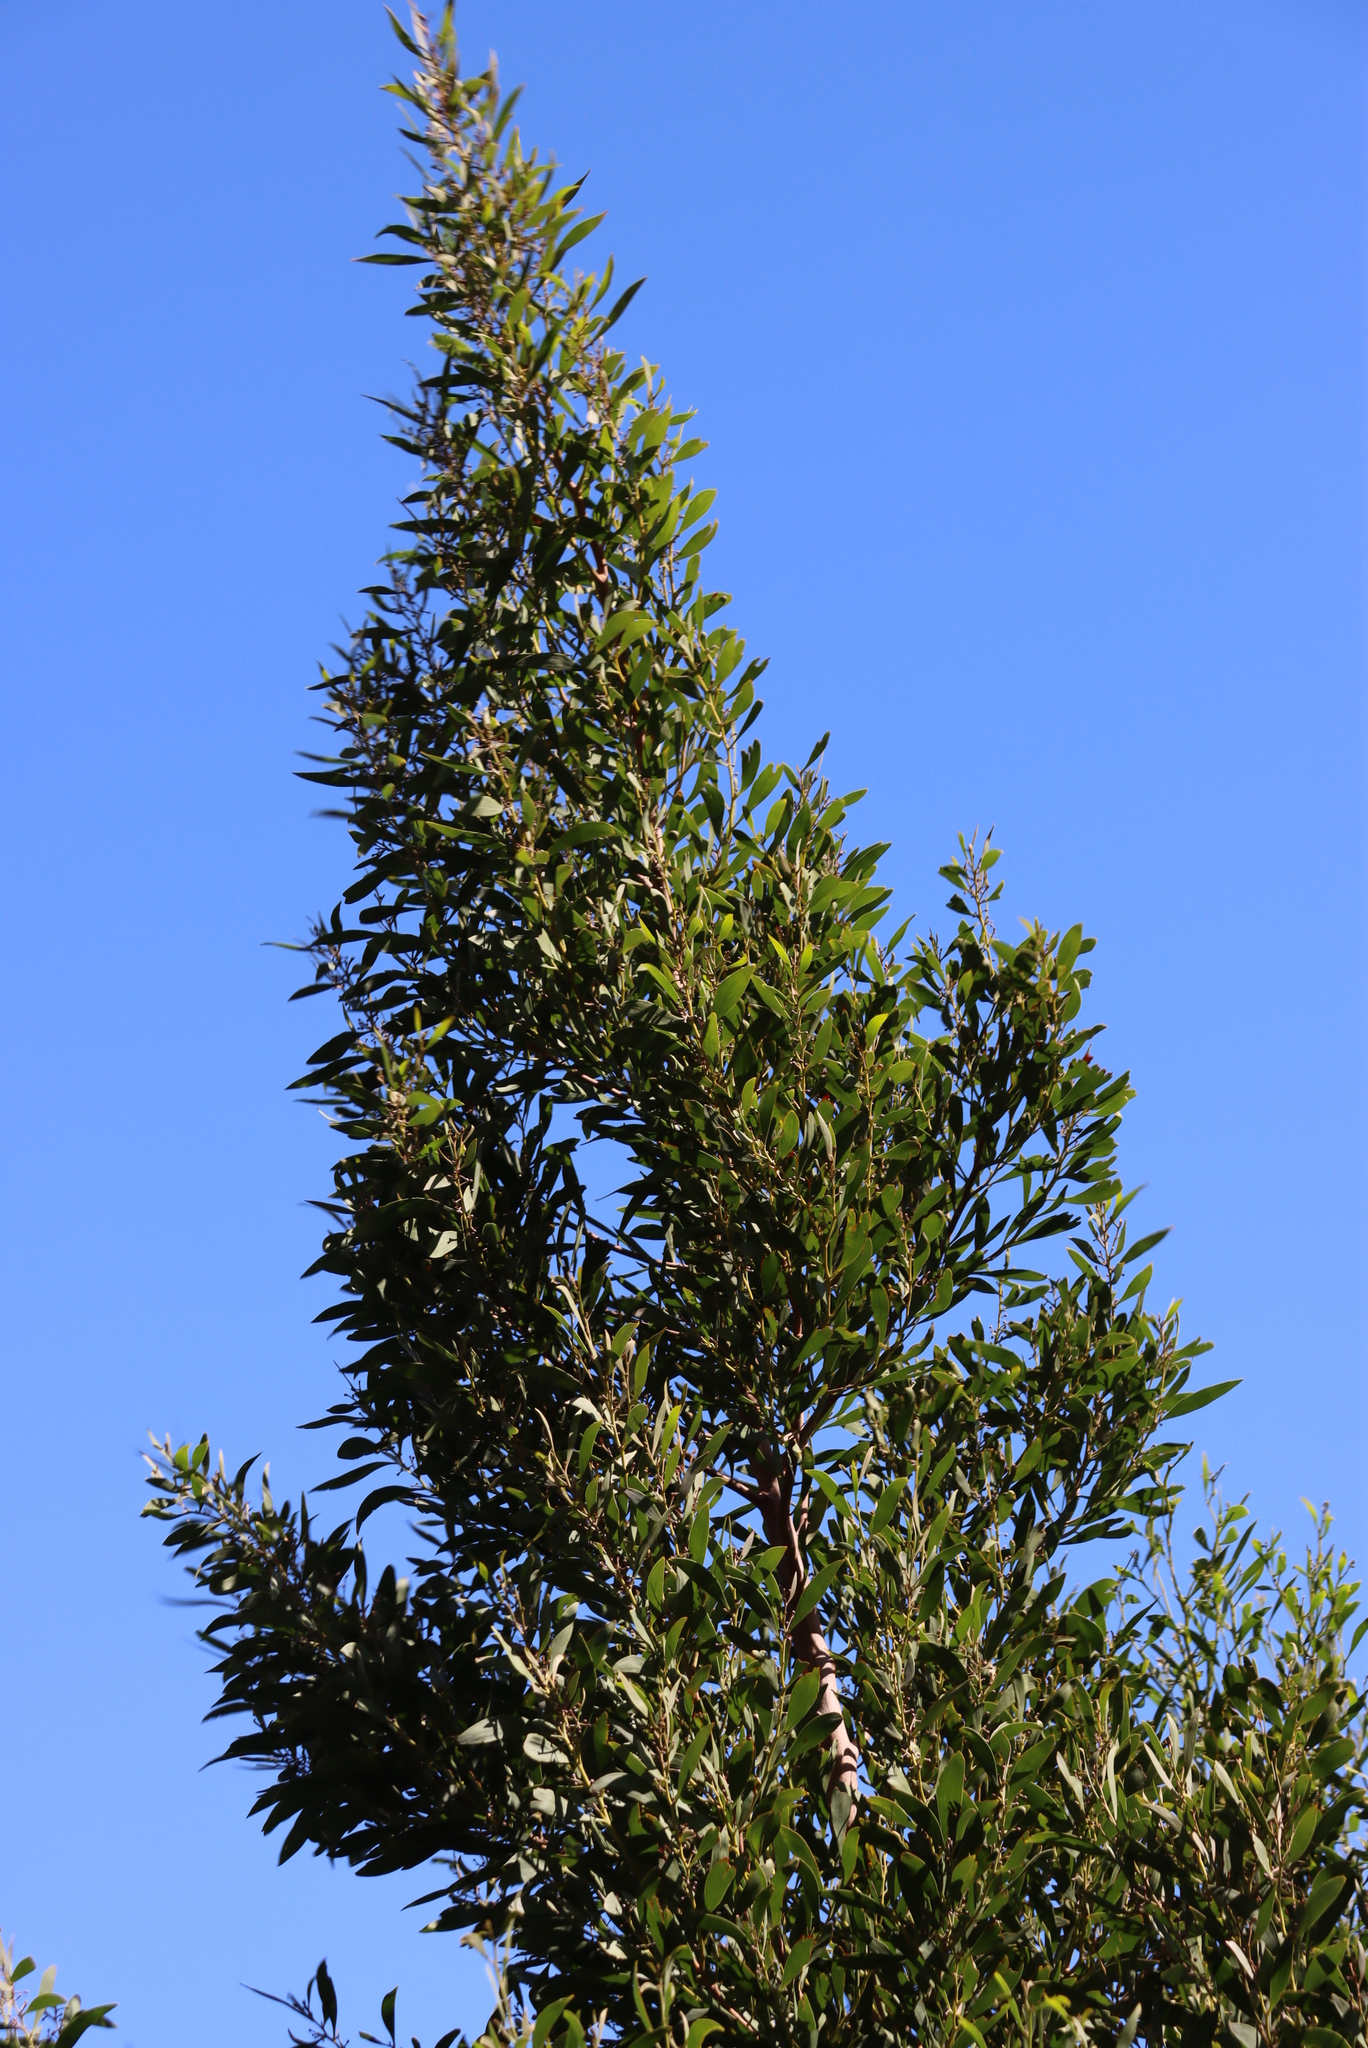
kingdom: Plantae
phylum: Tracheophyta
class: Magnoliopsida
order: Fabales
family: Fabaceae
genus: Acacia
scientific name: Acacia melanoxylon
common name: Blackwood
